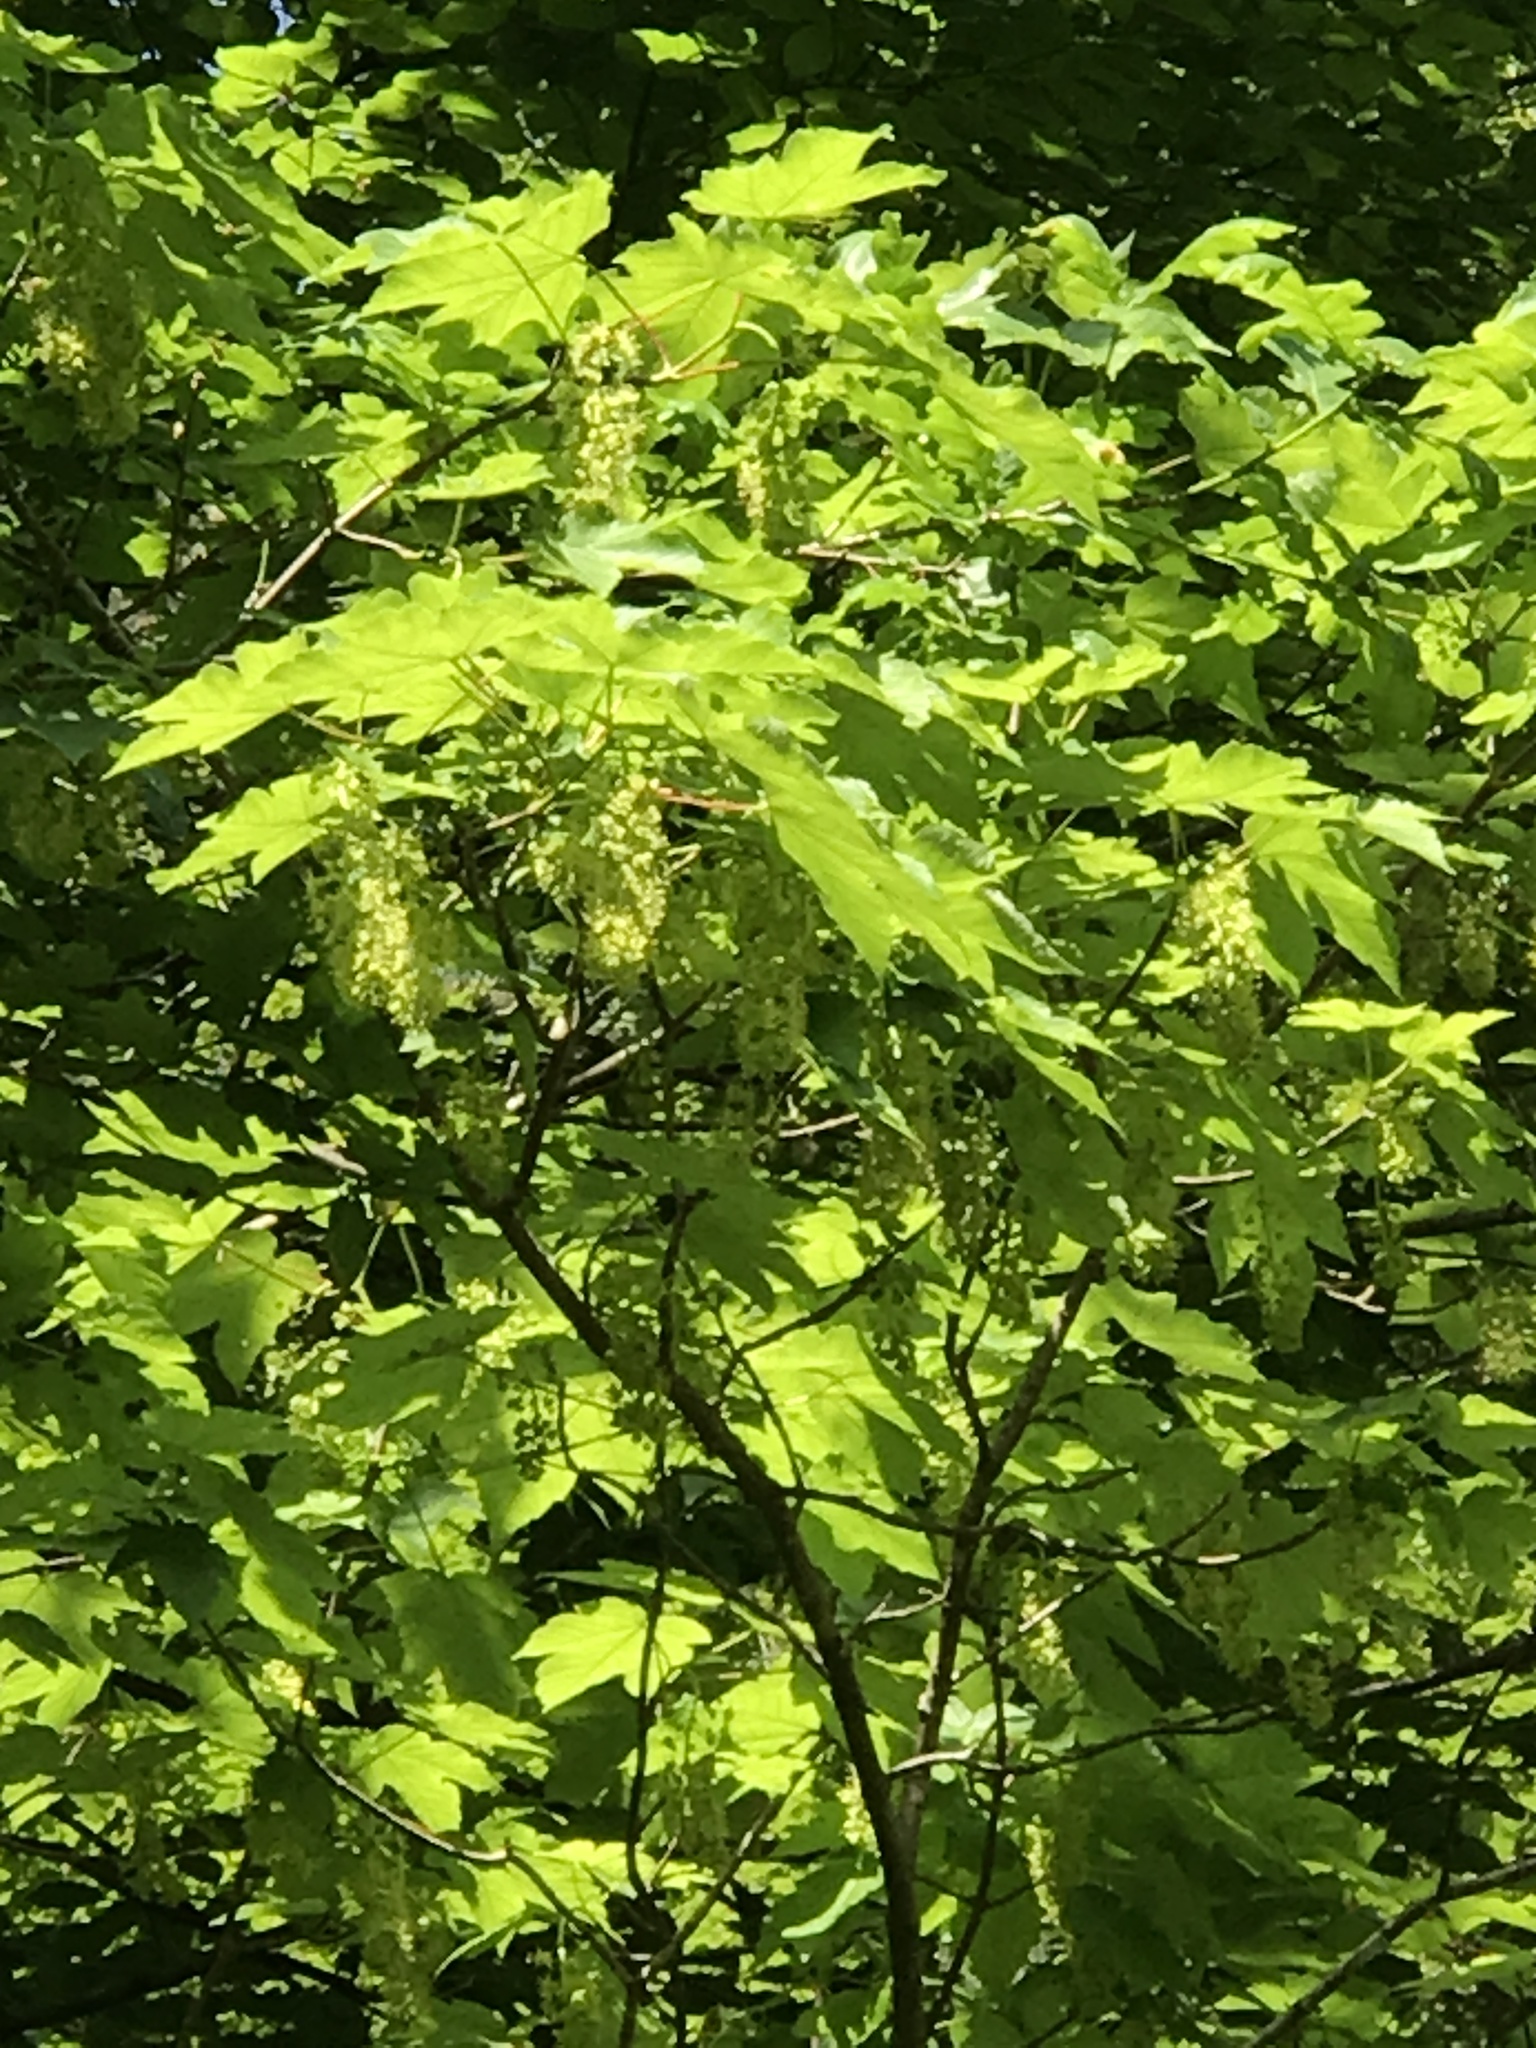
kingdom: Plantae
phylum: Tracheophyta
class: Magnoliopsida
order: Sapindales
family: Sapindaceae
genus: Acer
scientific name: Acer pseudoplatanus
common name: Sycamore
